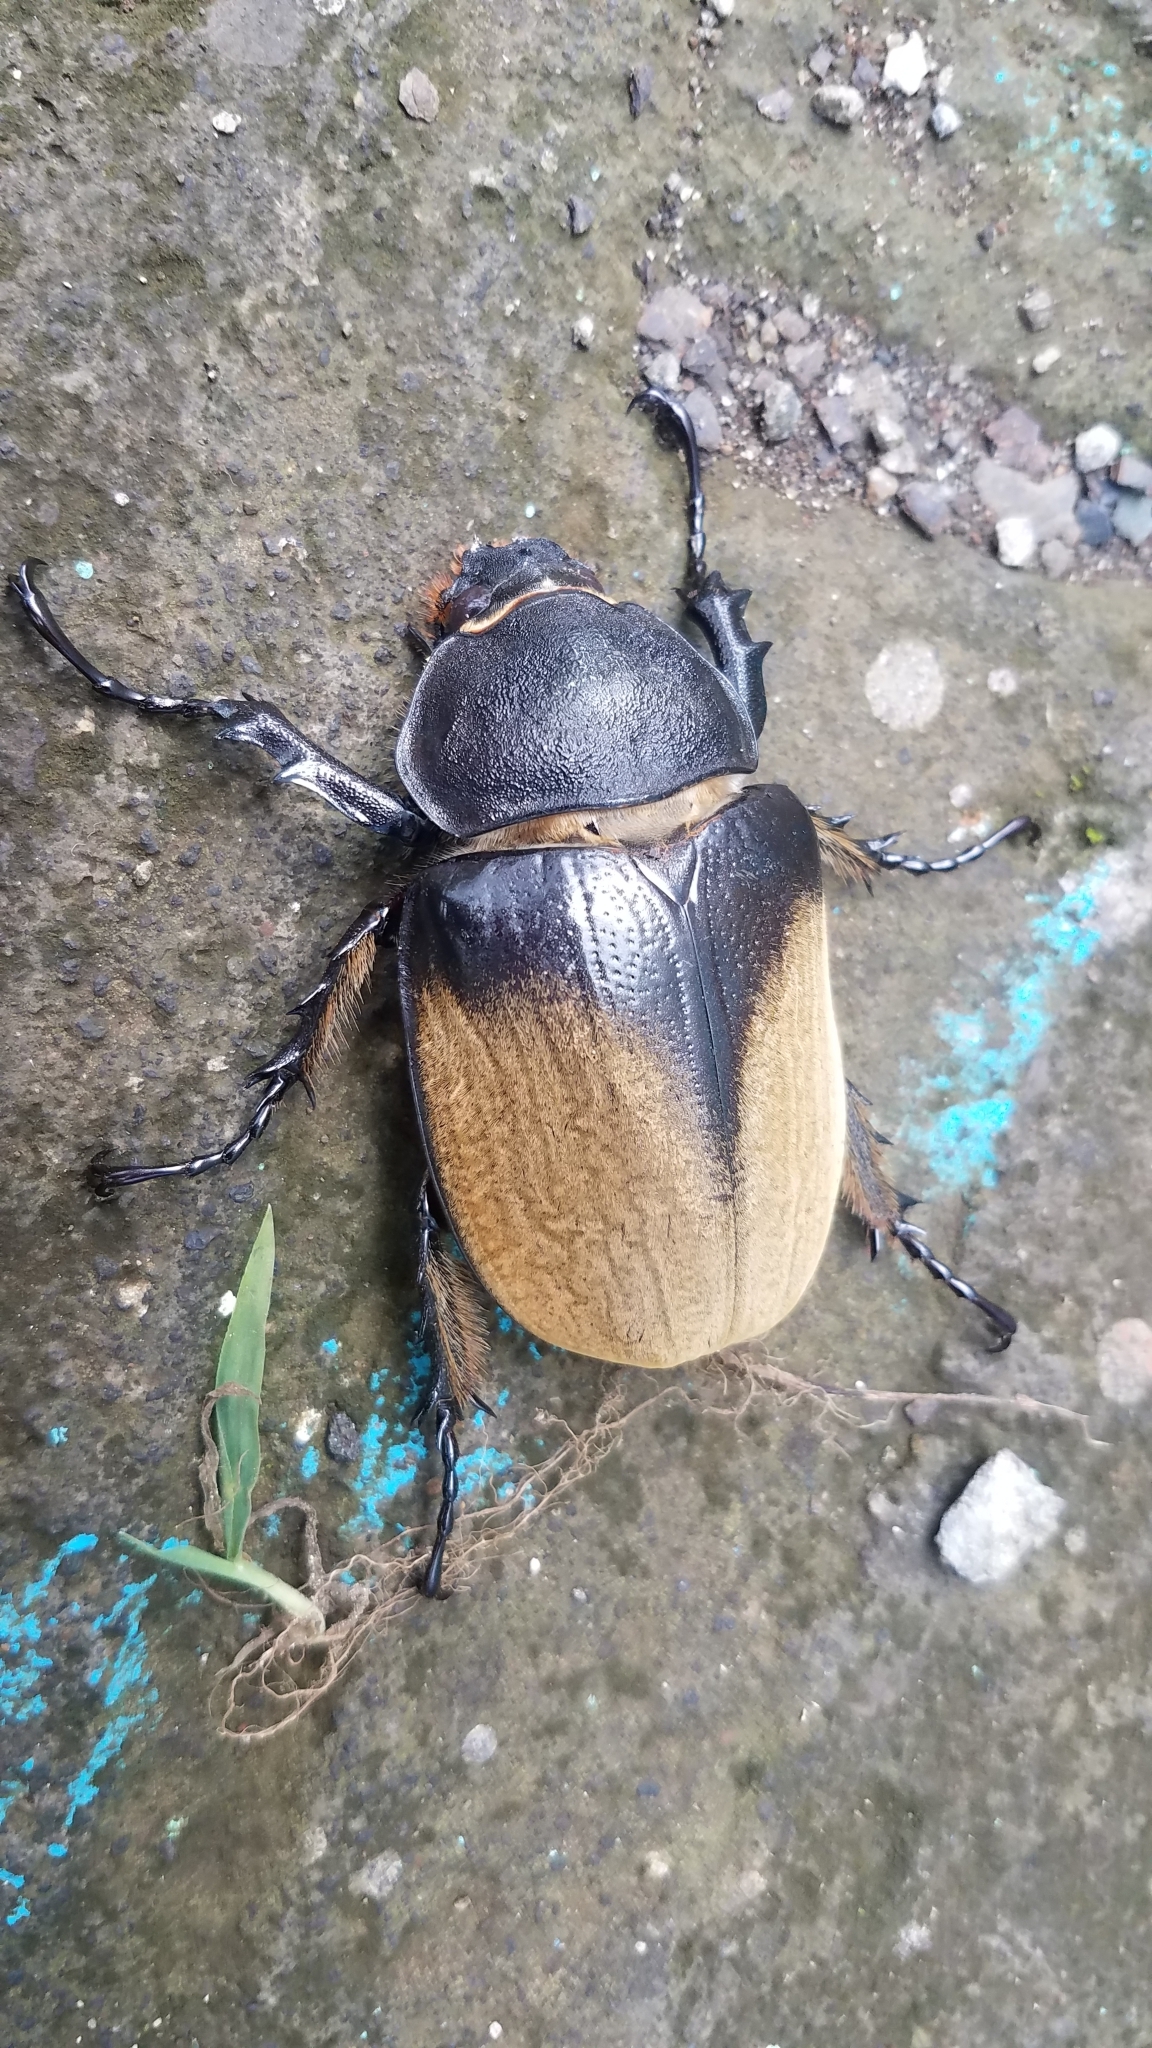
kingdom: Animalia
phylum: Arthropoda
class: Insecta
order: Coleoptera
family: Scarabaeidae
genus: Megasoma
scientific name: Megasoma elephas
